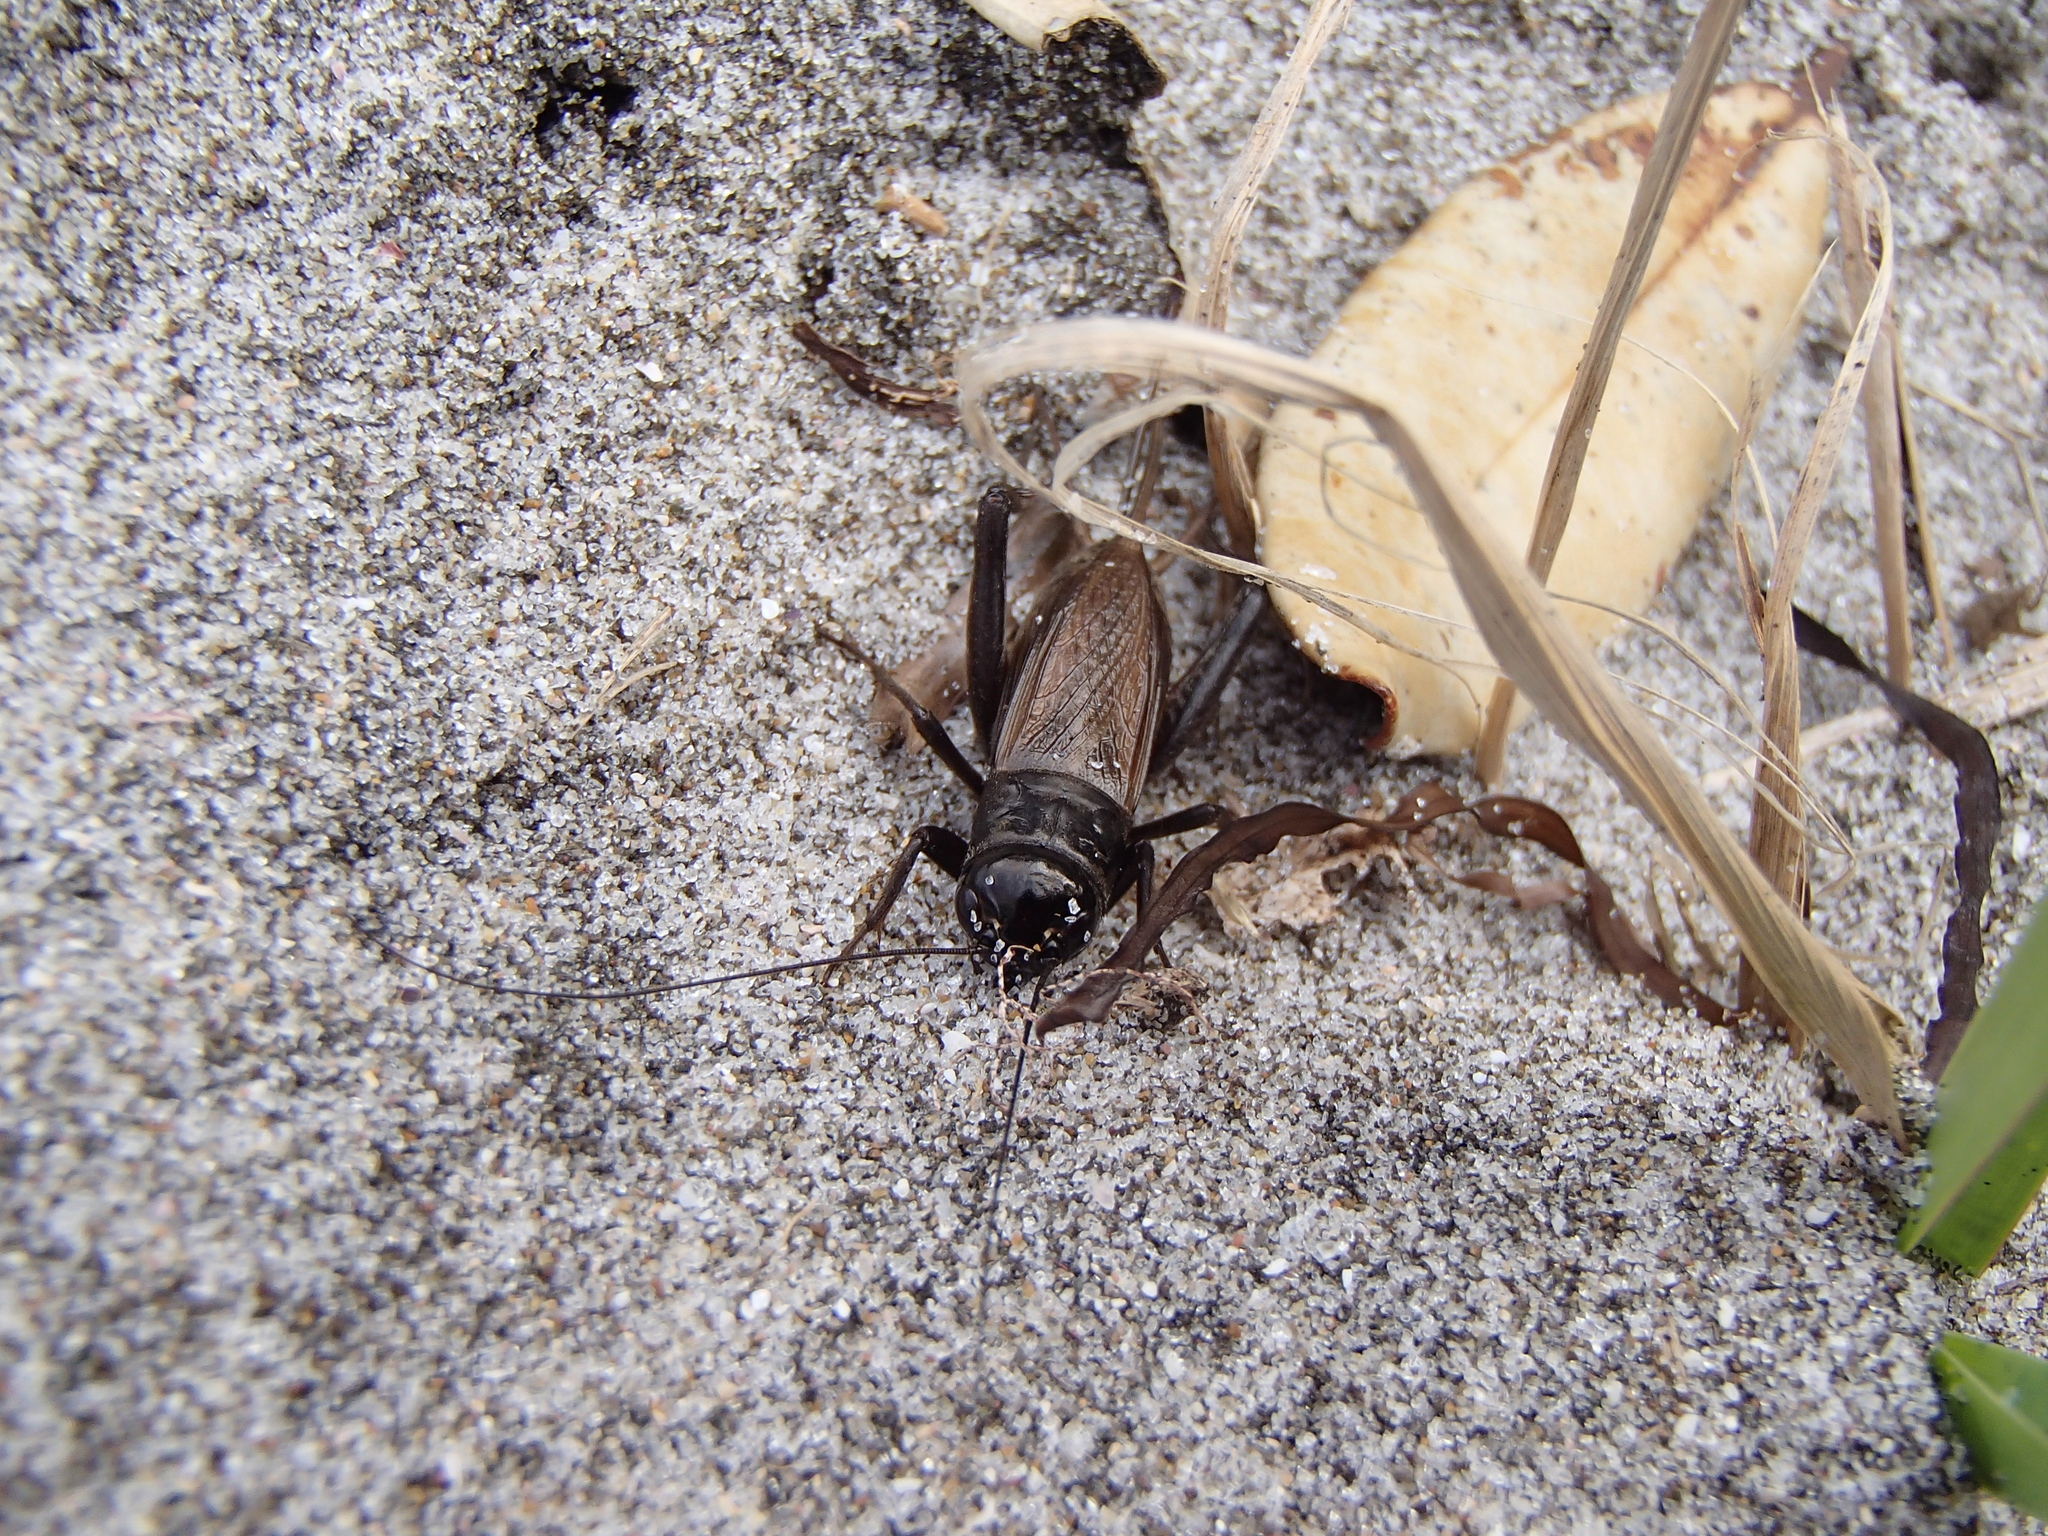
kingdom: Animalia
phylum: Arthropoda
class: Insecta
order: Orthoptera
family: Gryllidae
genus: Teleogryllus
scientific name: Teleogryllus commodus
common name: Black field cricket
